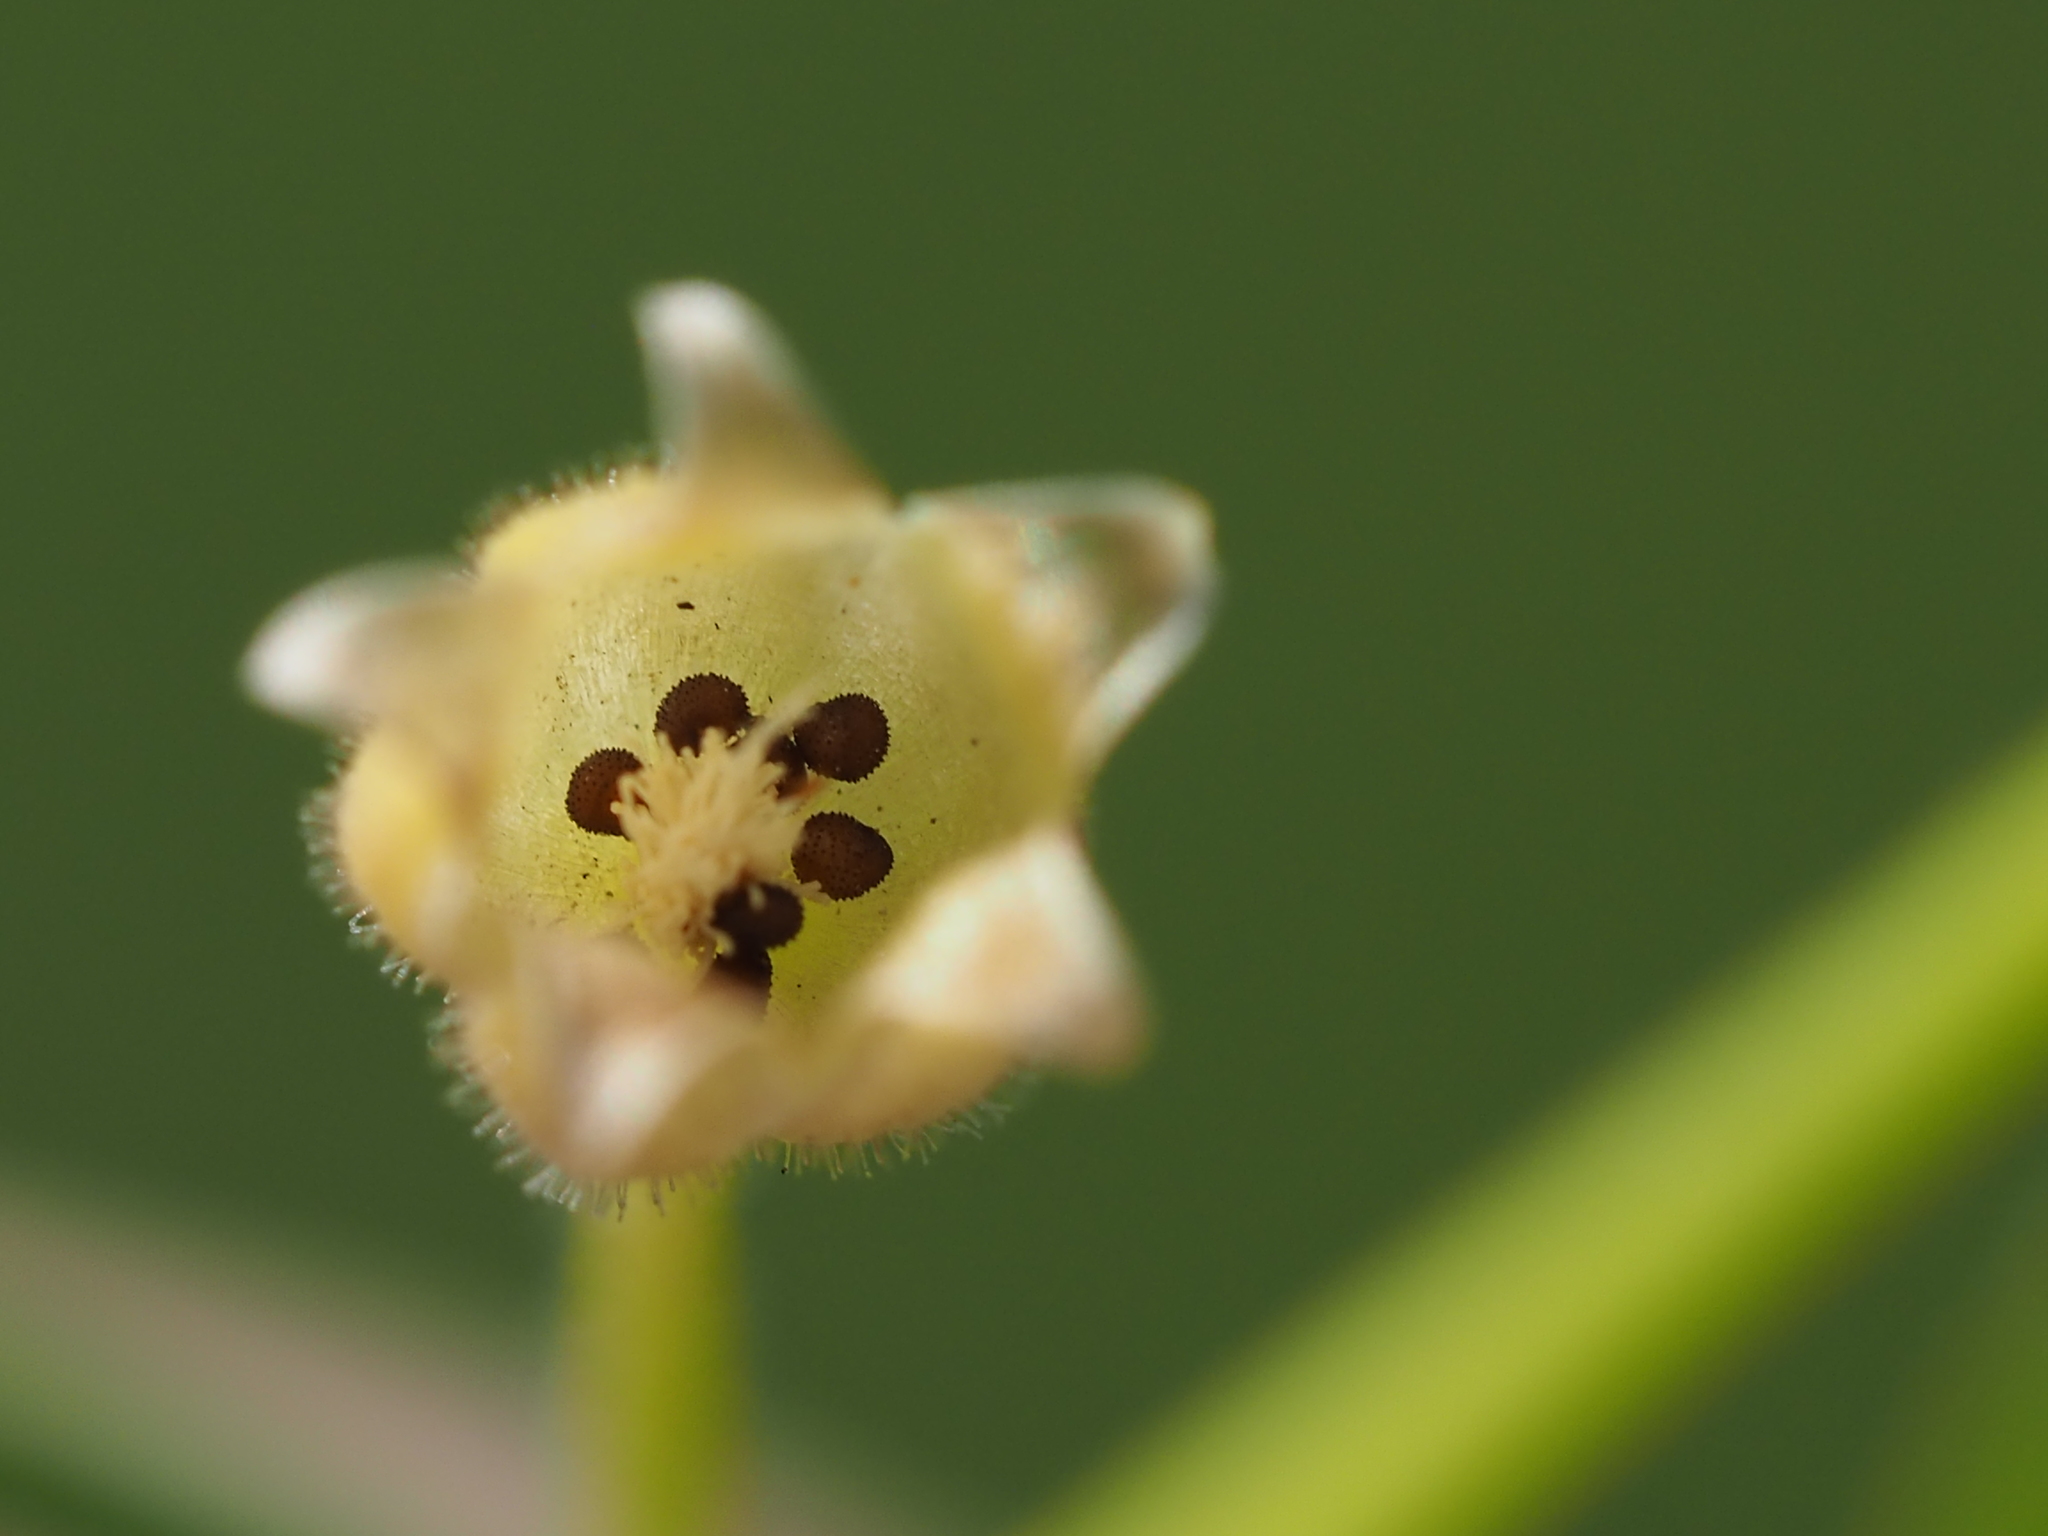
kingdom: Plantae
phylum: Tracheophyta
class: Magnoliopsida
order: Caryophyllales
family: Caryophyllaceae
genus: Sagina
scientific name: Sagina japonica
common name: Japanese pearlwort
